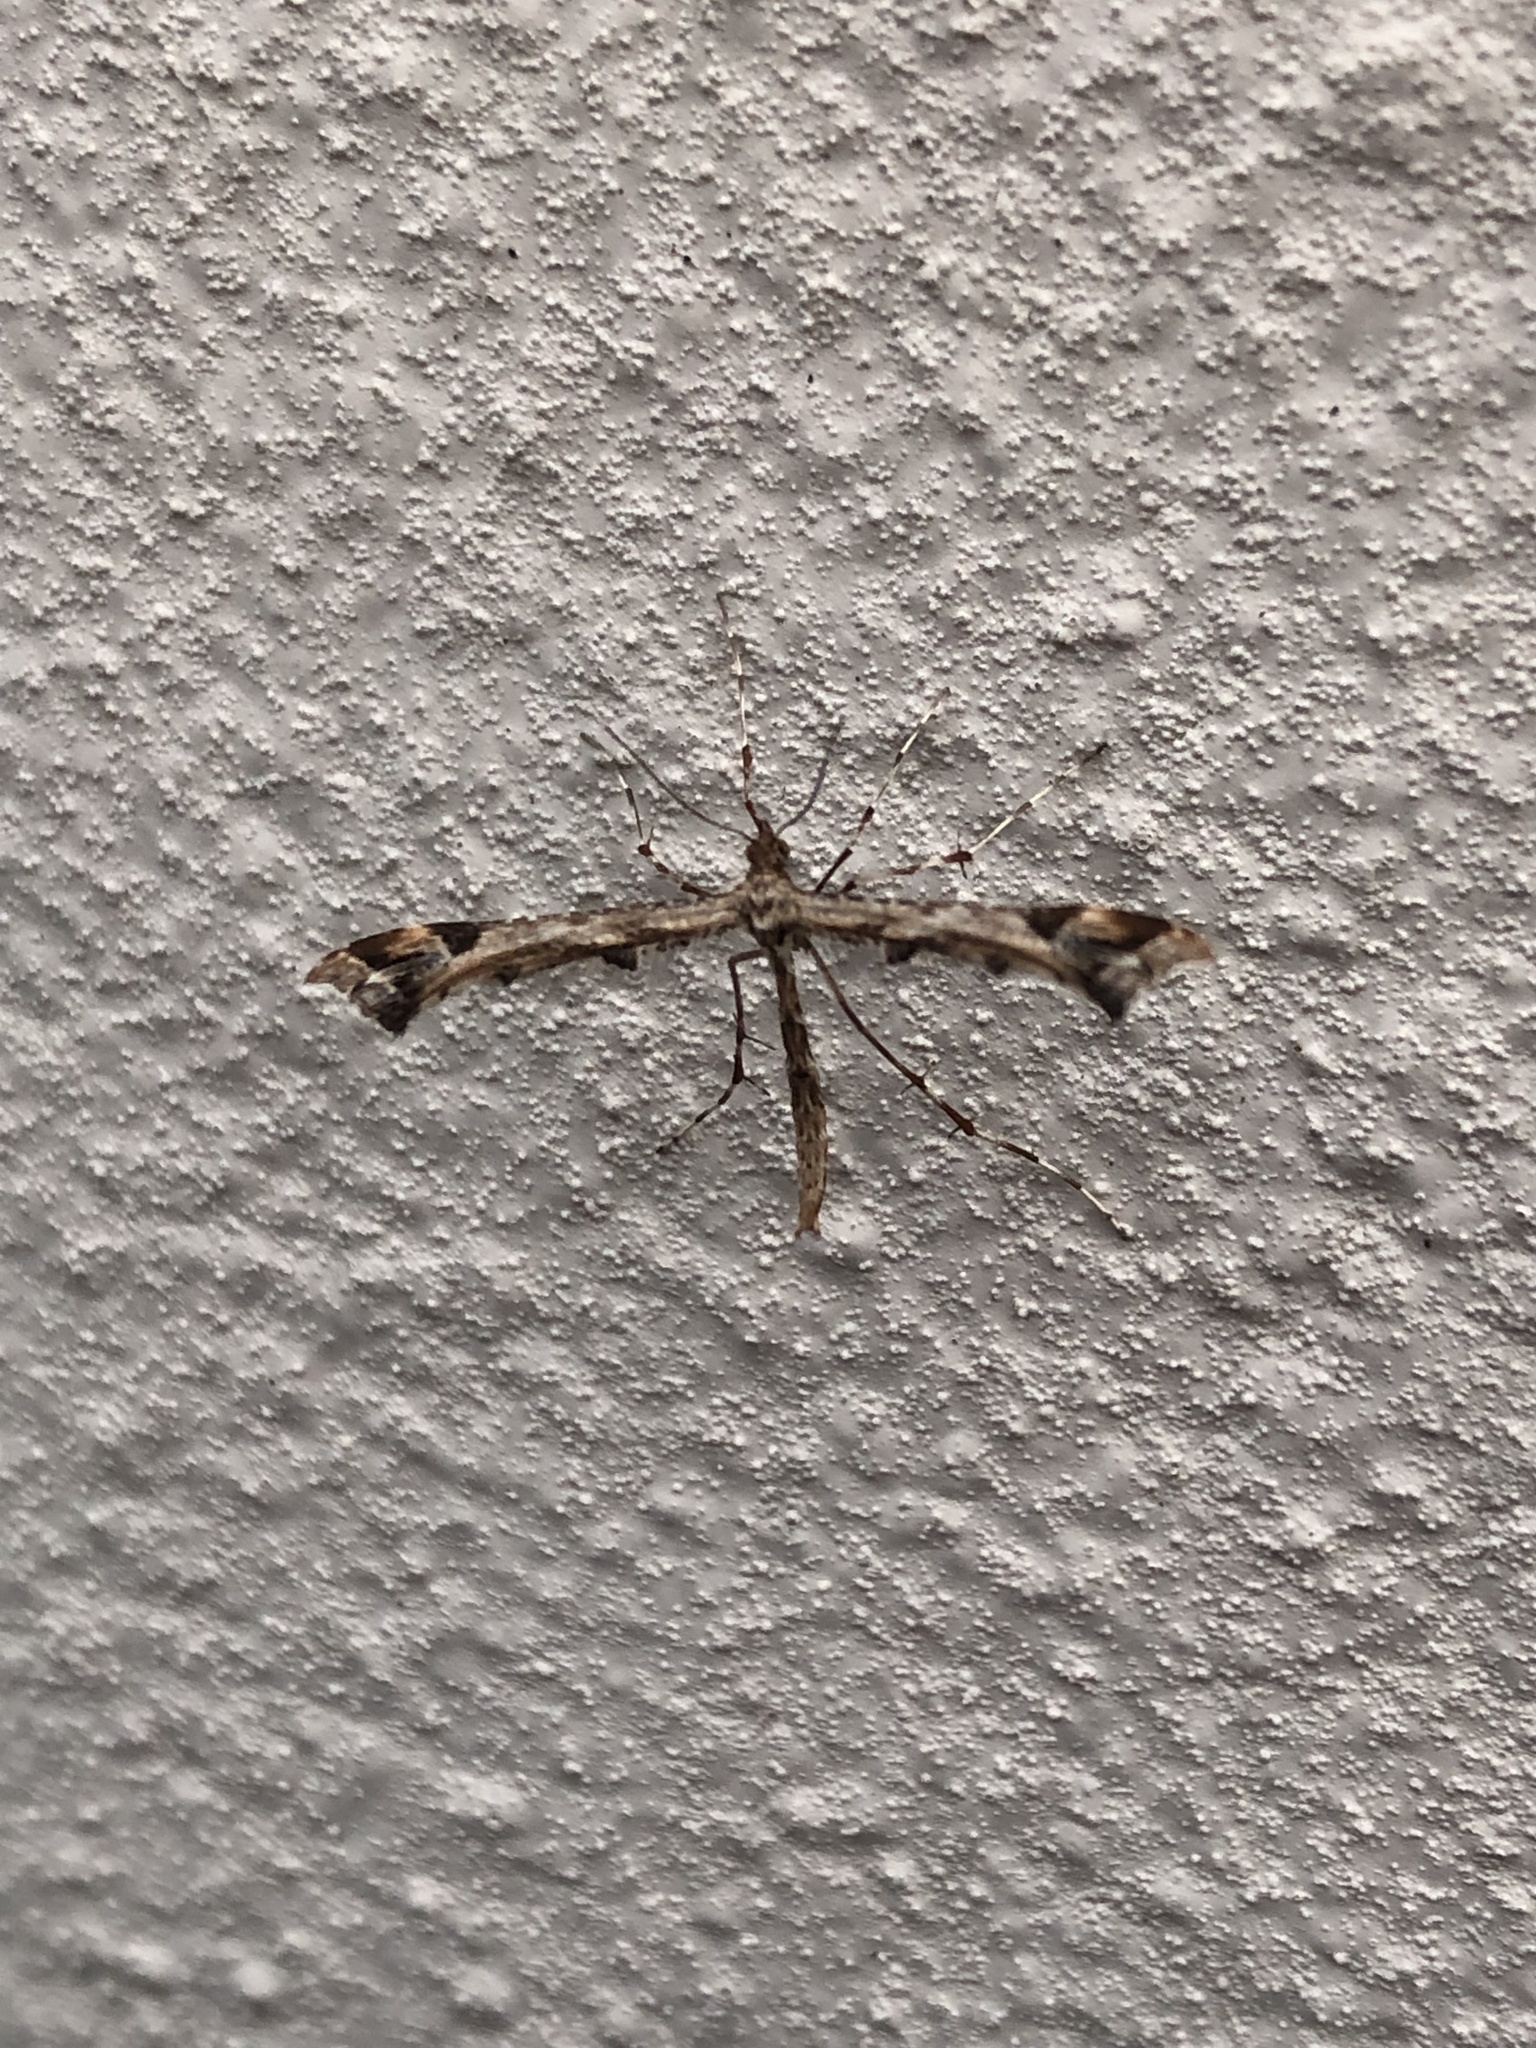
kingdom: Animalia
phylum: Arthropoda
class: Insecta
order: Lepidoptera
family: Pterophoridae
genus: Amblyptilia
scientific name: Amblyptilia acanthadactyla
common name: Beautiful plume
